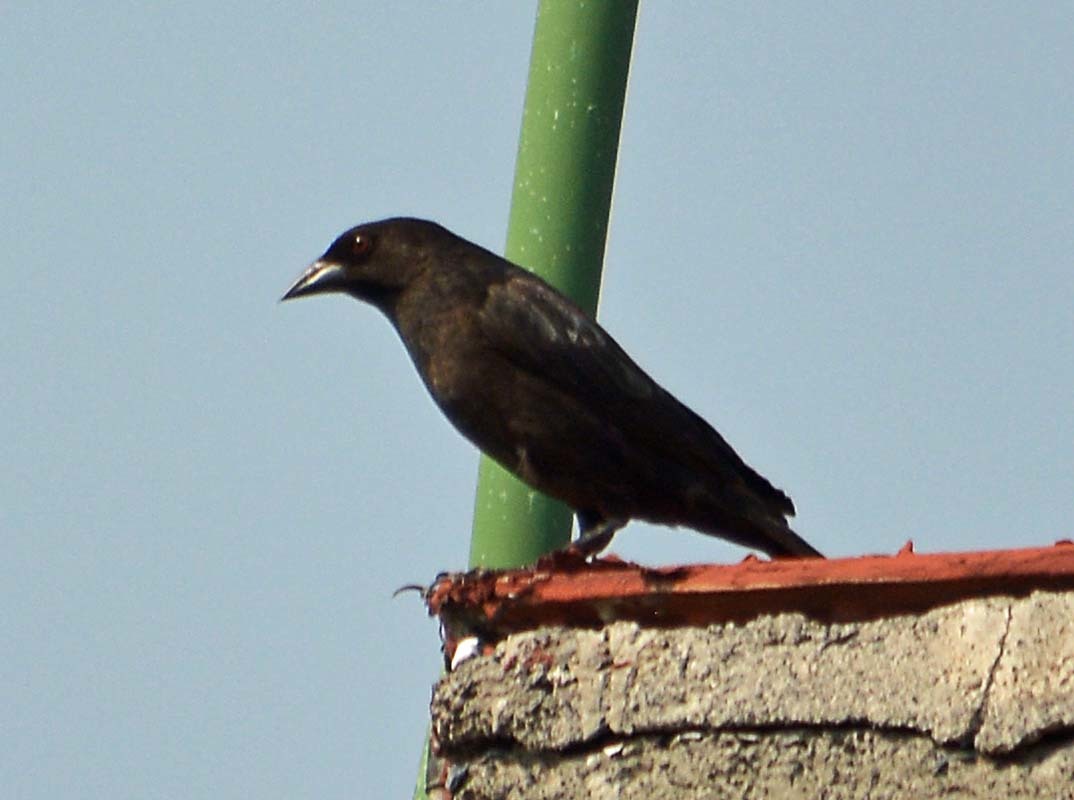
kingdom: Animalia
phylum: Chordata
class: Aves
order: Passeriformes
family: Icteridae
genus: Molothrus
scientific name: Molothrus aeneus
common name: Bronzed cowbird
